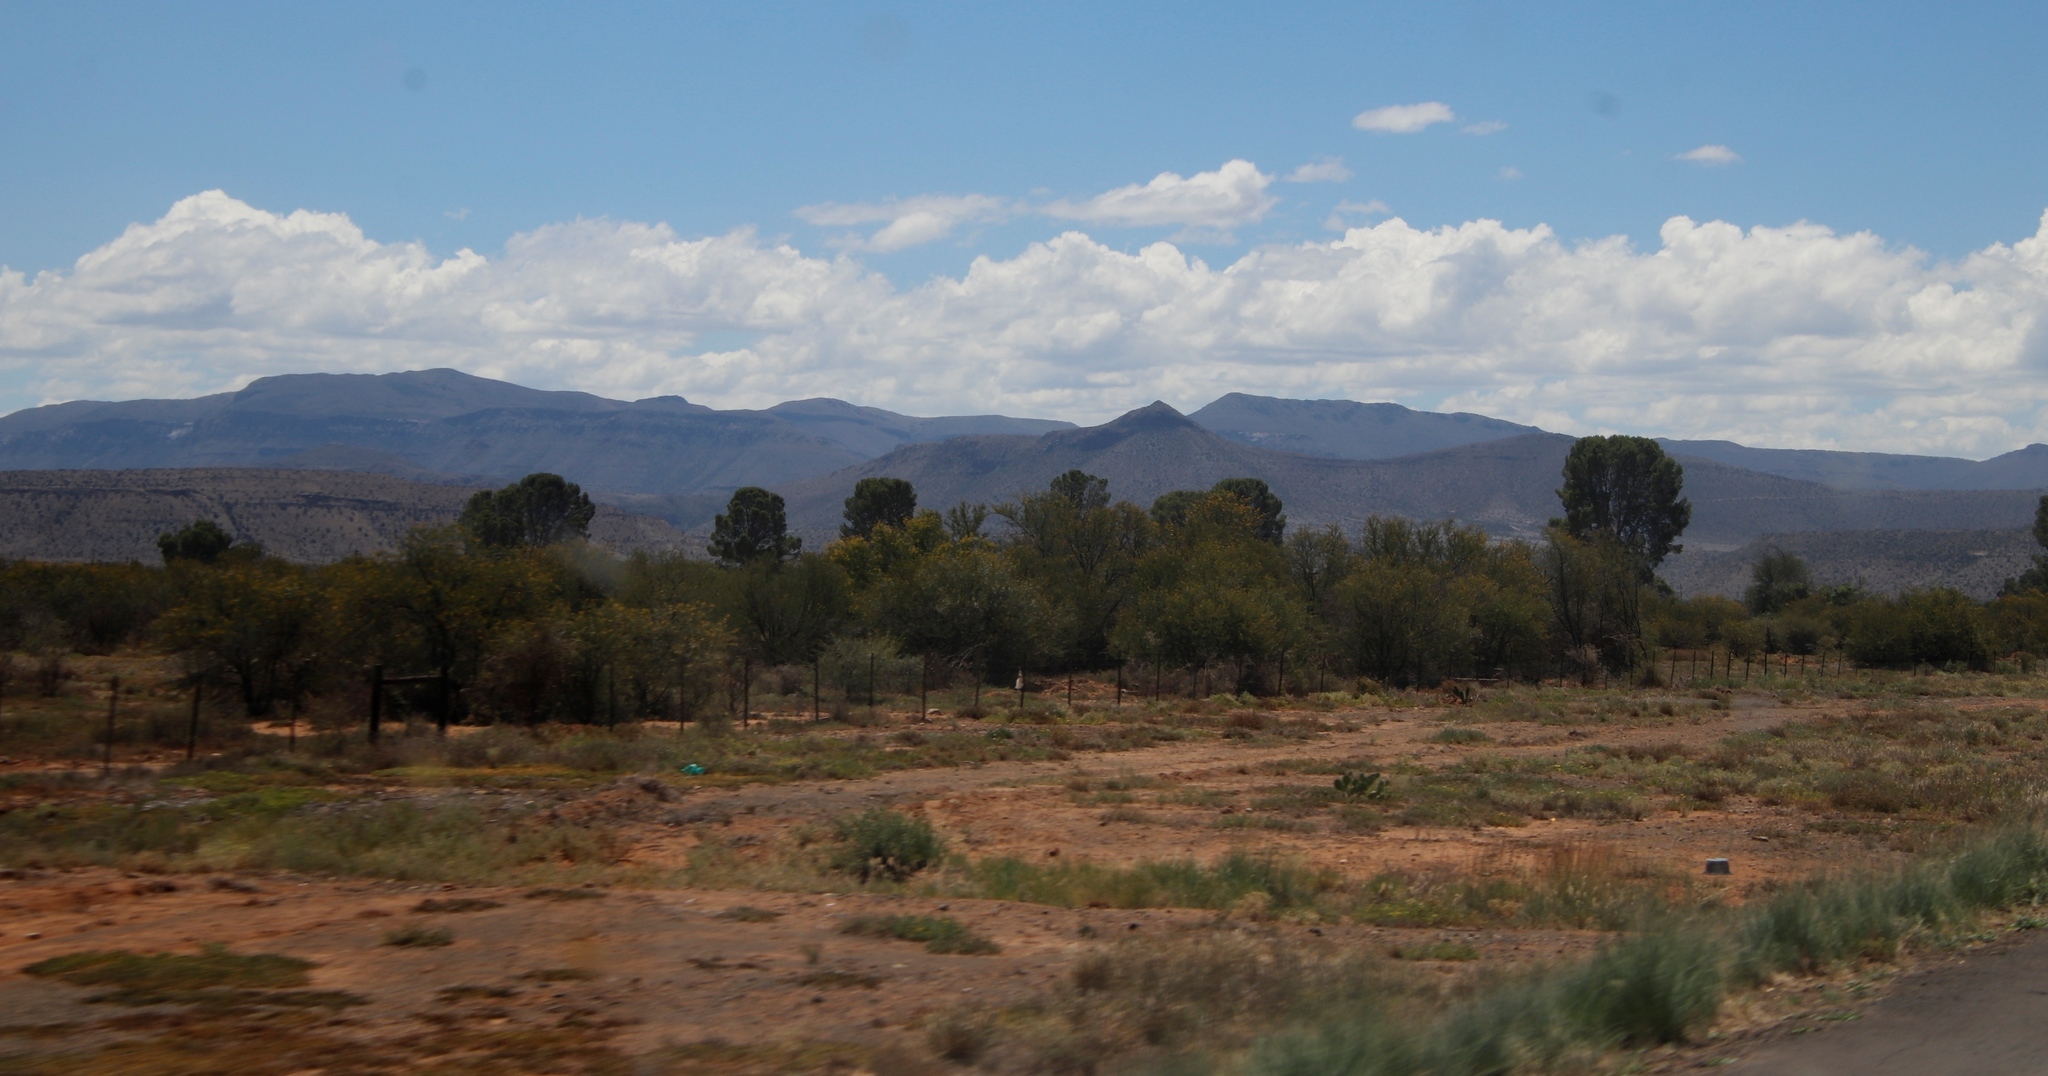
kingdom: Plantae
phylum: Tracheophyta
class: Magnoliopsida
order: Fabales
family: Fabaceae
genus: Vachellia
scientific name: Vachellia karroo
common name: Sweet thorn
